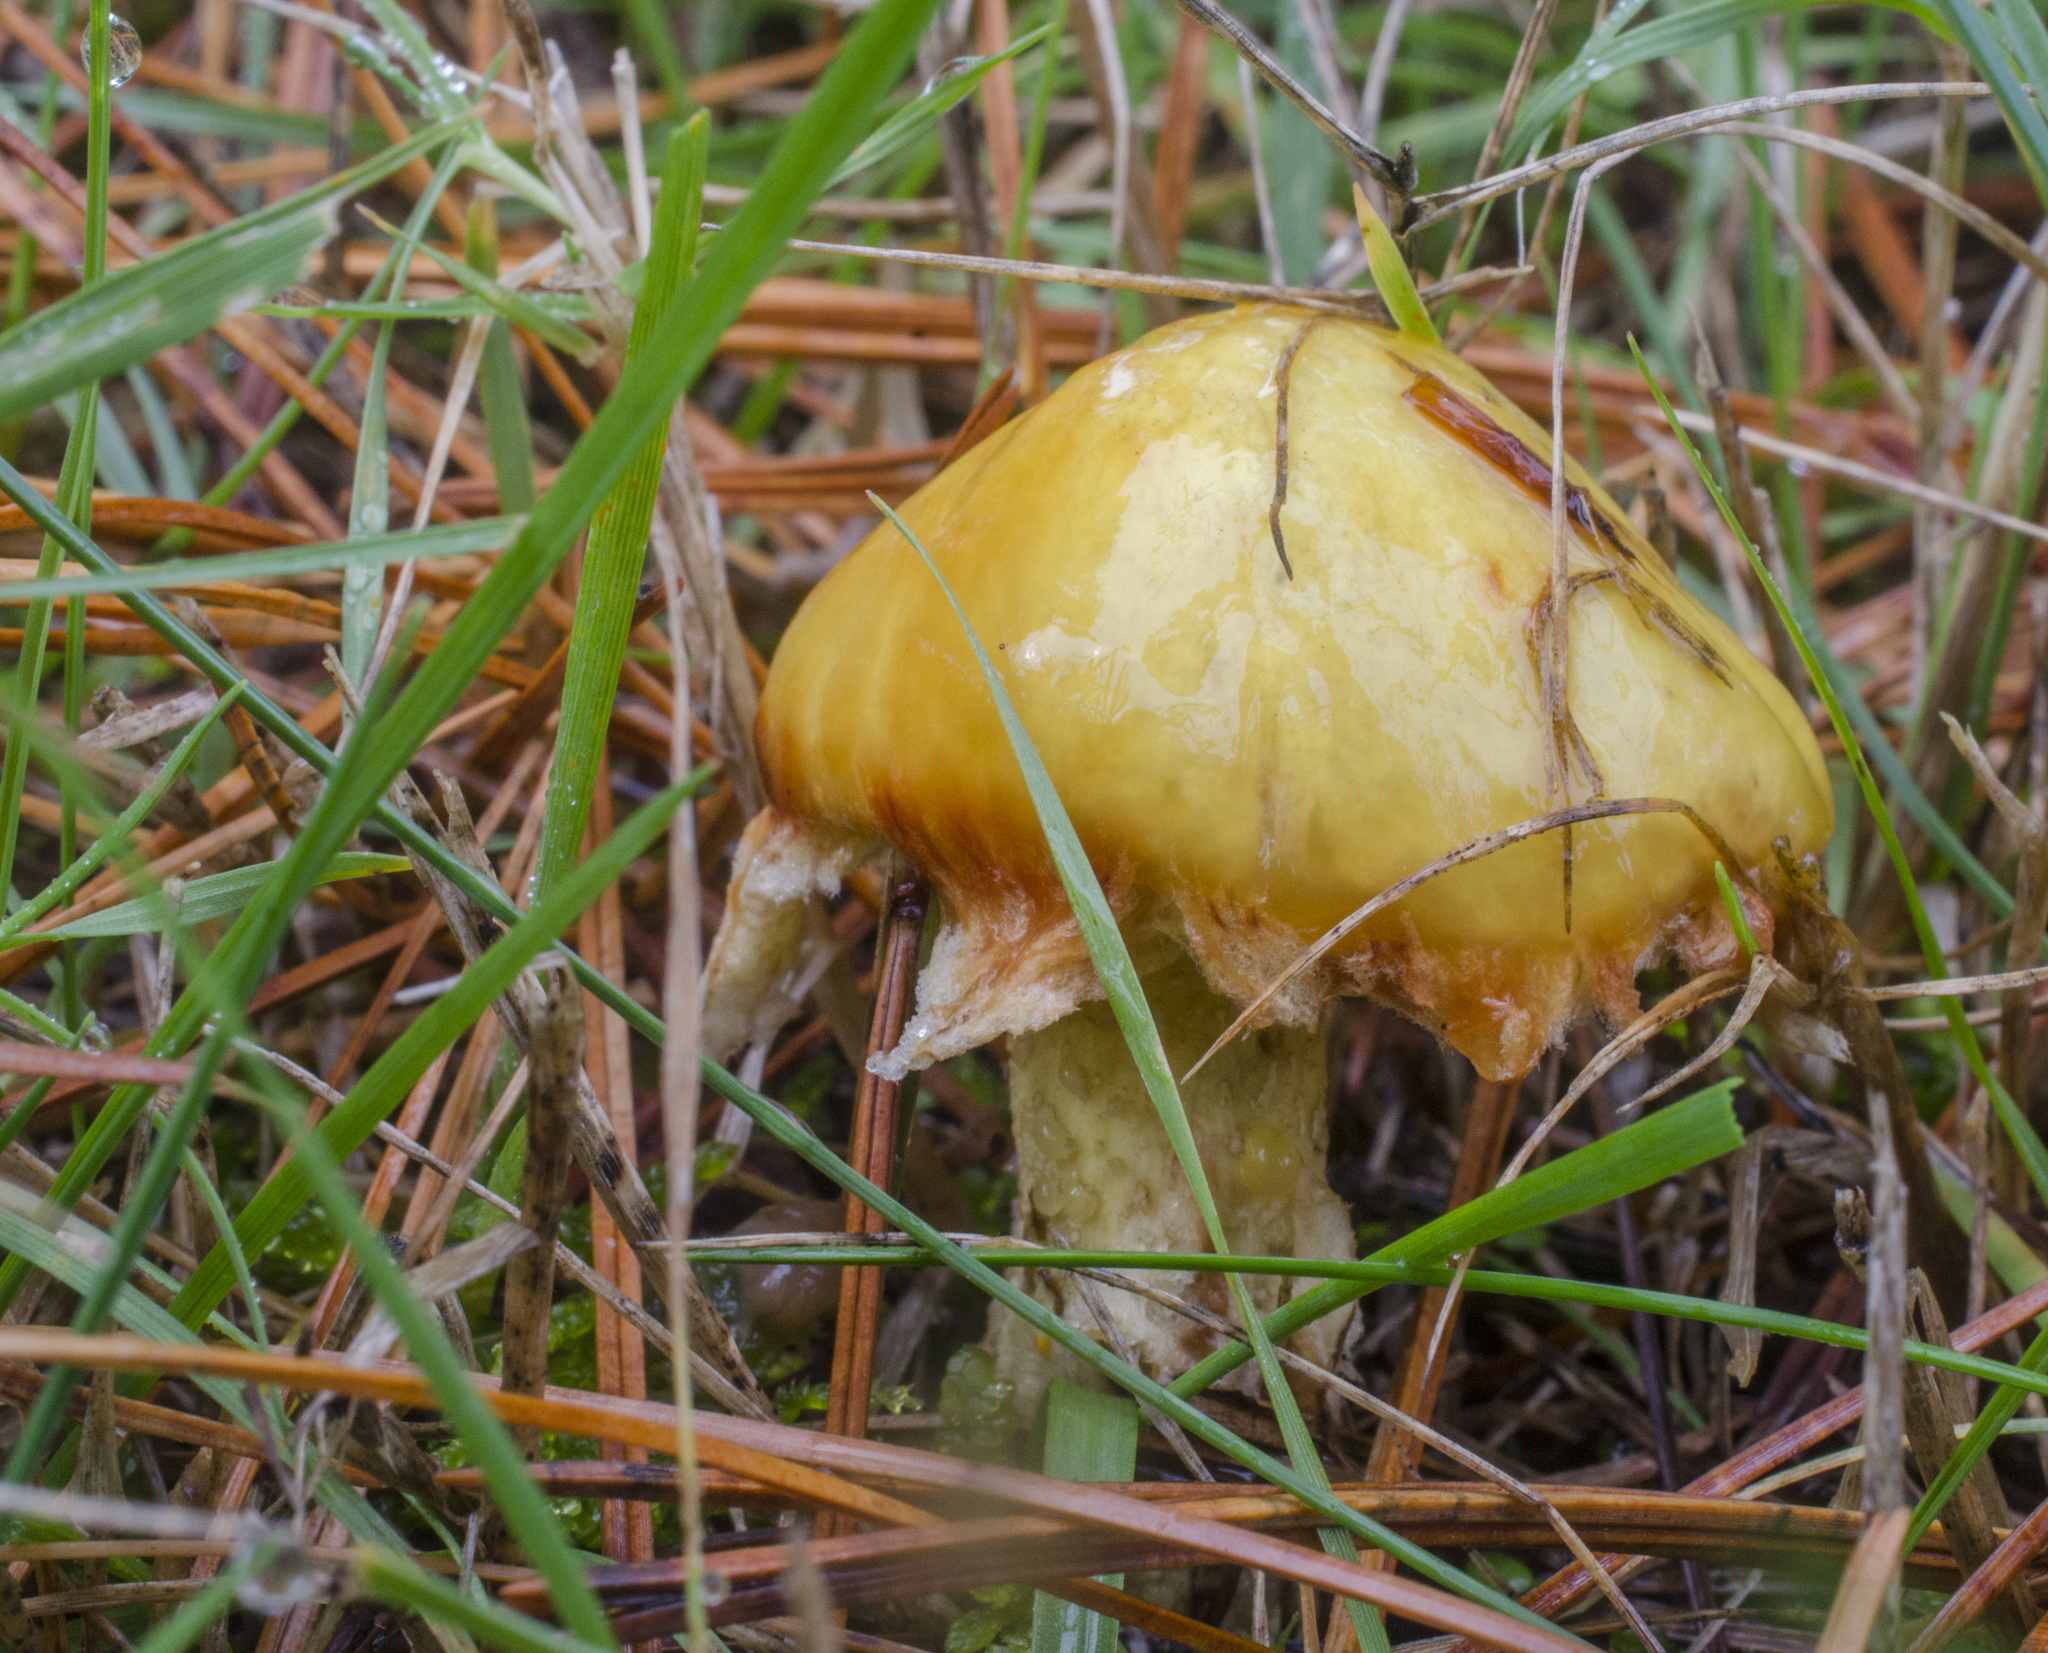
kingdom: Fungi
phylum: Basidiomycota
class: Agaricomycetes
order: Boletales
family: Suillaceae
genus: Suillus
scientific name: Suillus americanus
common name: Chicken fat mushroom
